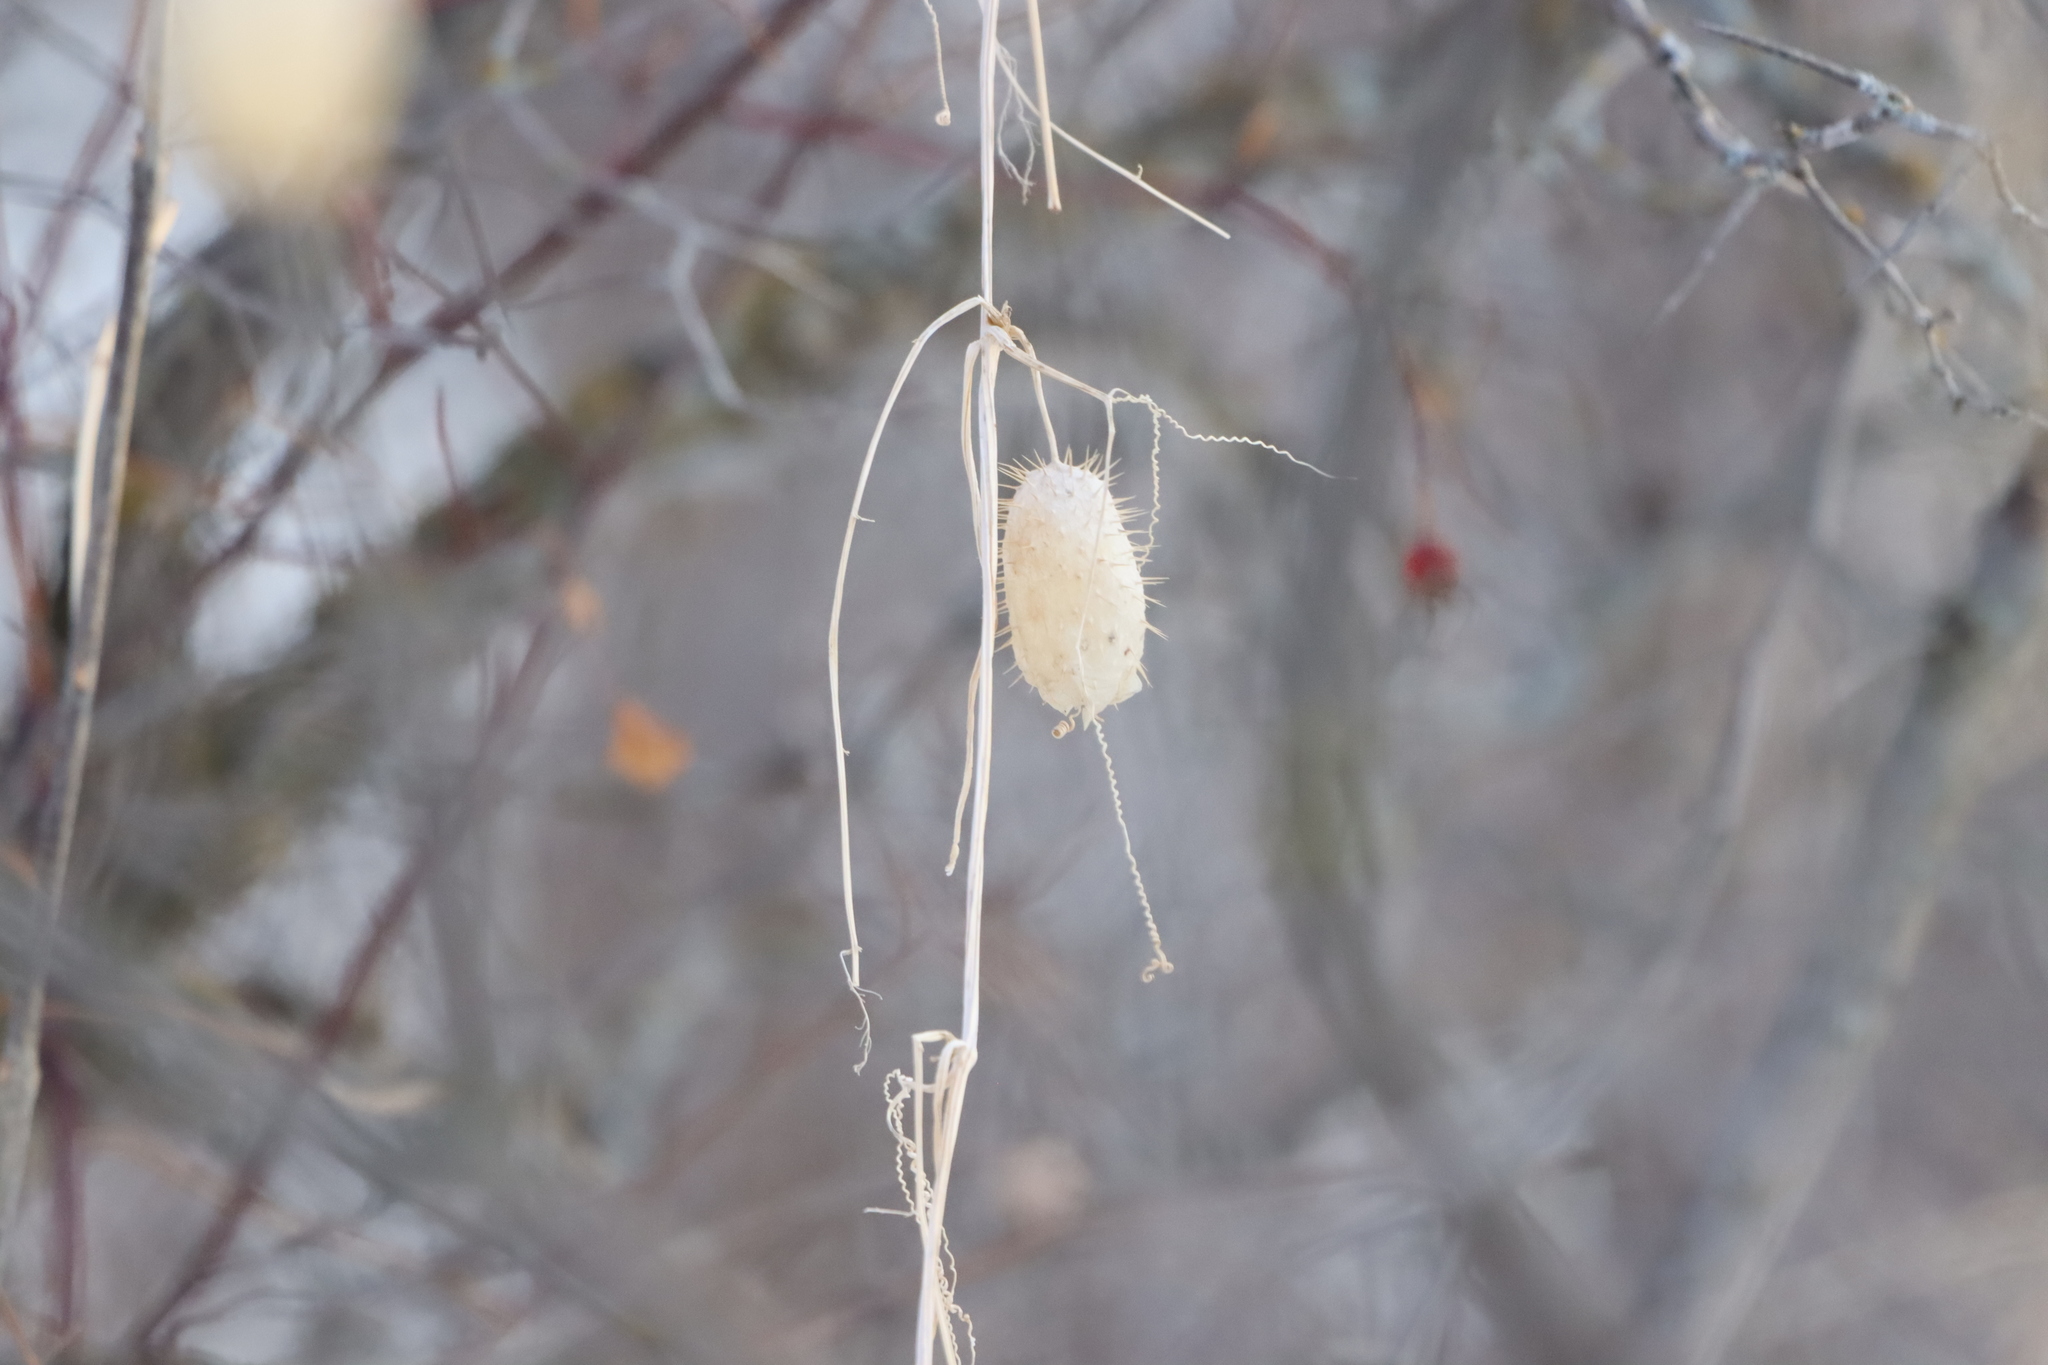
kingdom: Plantae
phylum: Tracheophyta
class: Magnoliopsida
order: Cucurbitales
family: Cucurbitaceae
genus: Echinocystis
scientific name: Echinocystis lobata
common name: Wild cucumber
